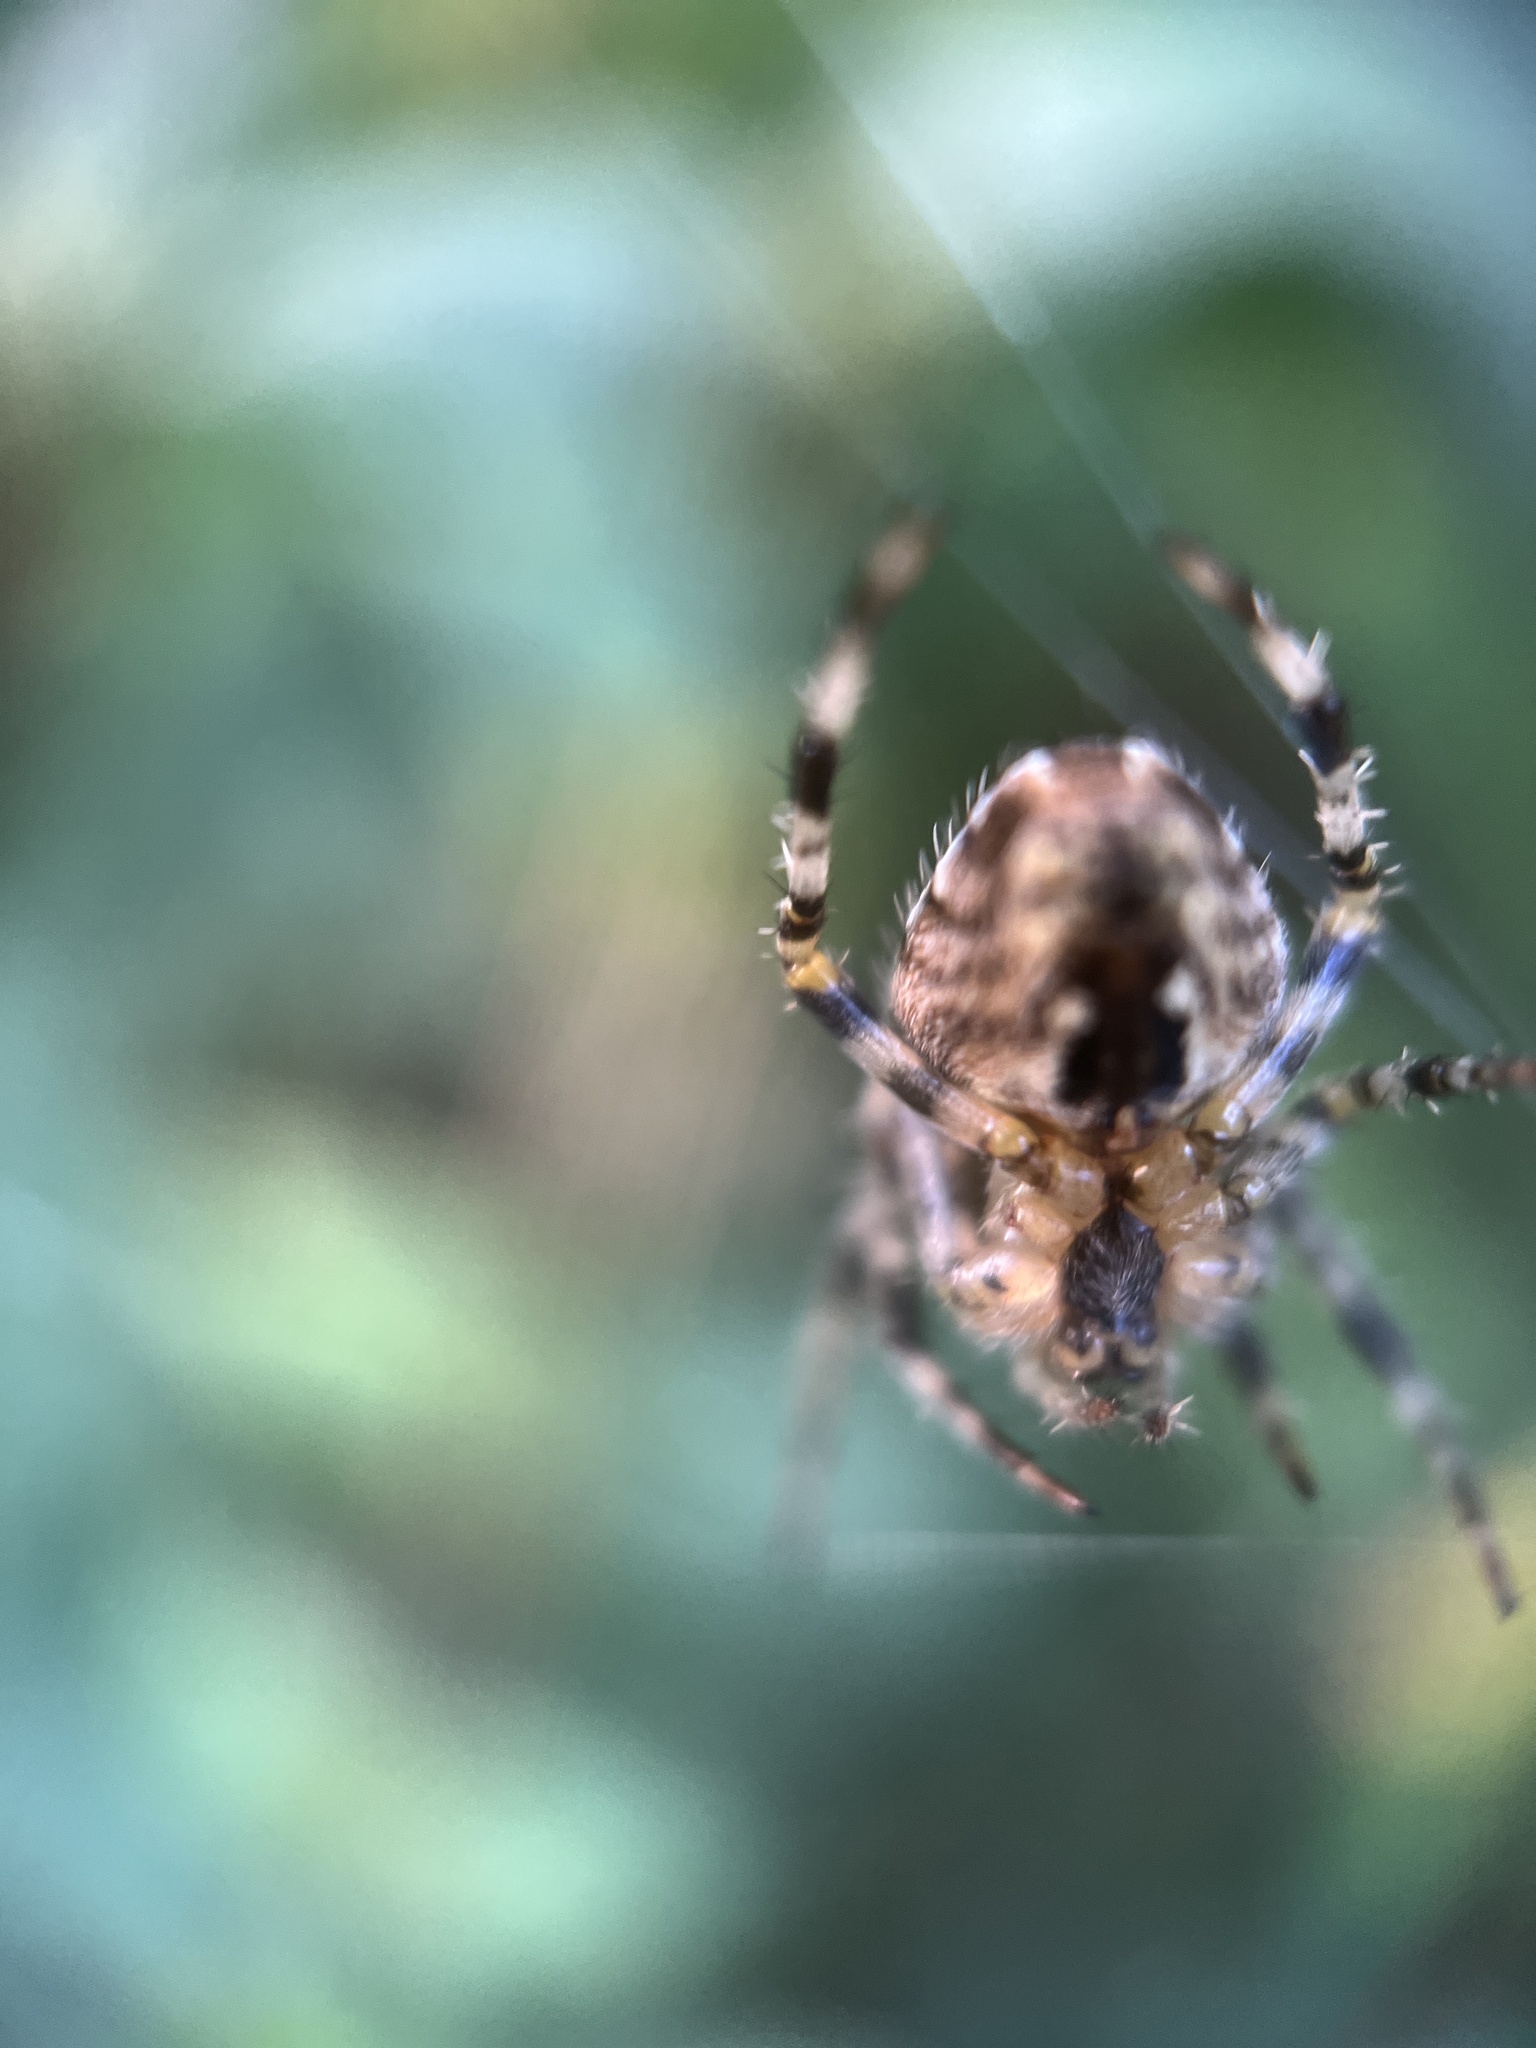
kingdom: Animalia
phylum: Arthropoda
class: Arachnida
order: Araneae
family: Araneidae
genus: Araneus
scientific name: Araneus diadematus
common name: Cross orbweaver
